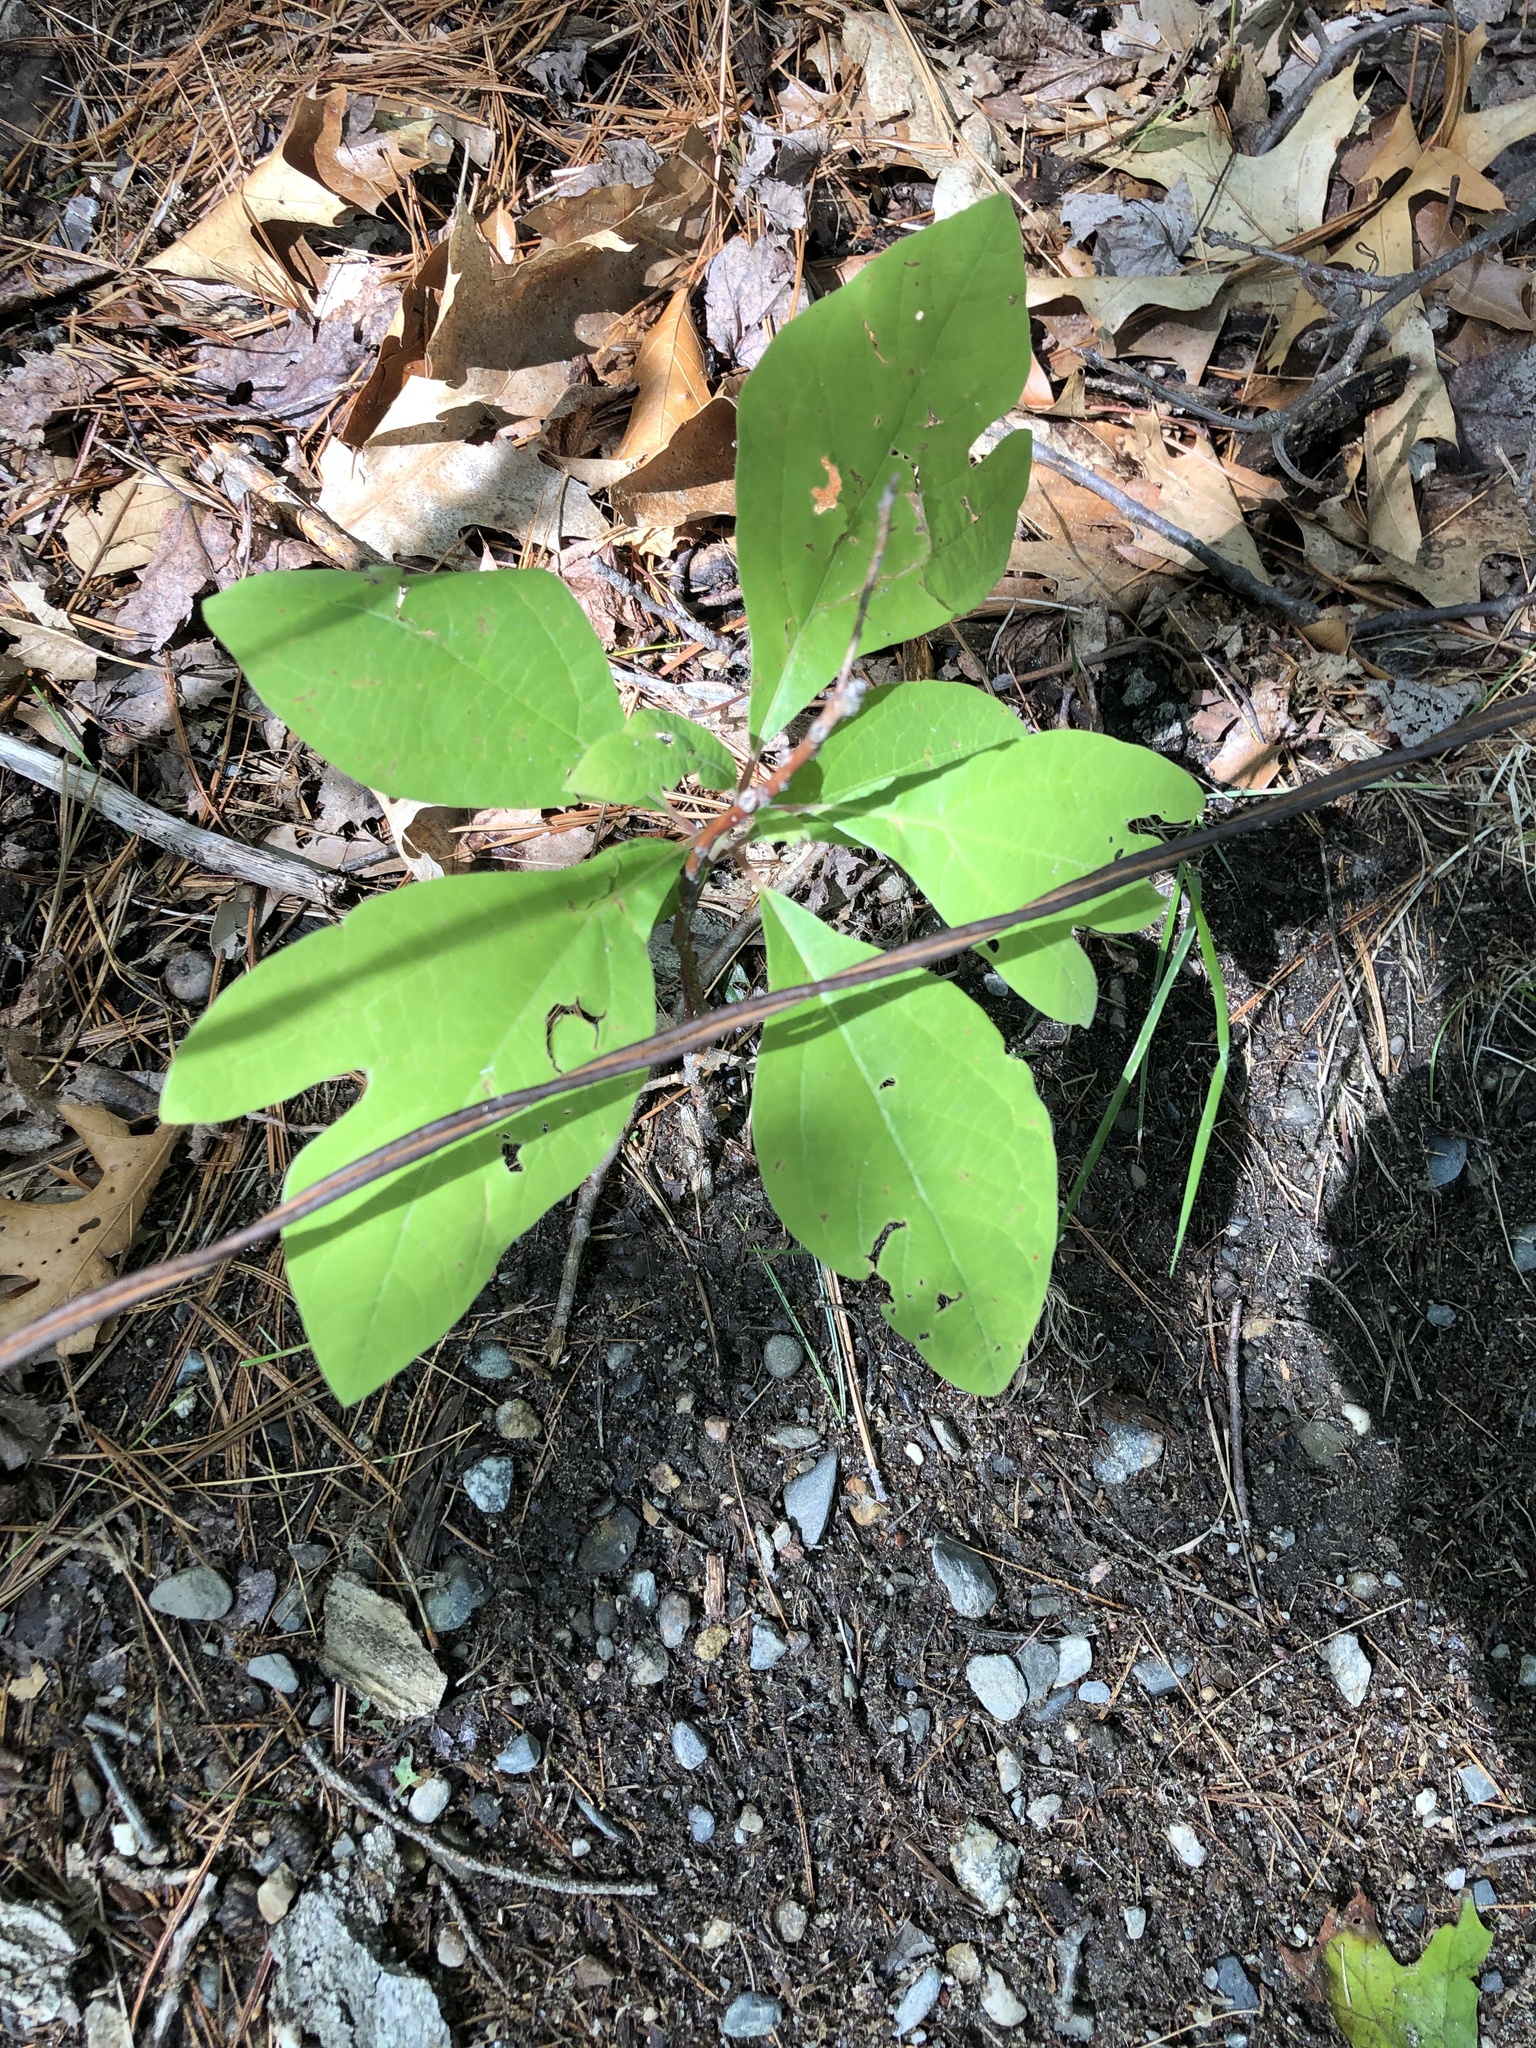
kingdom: Plantae
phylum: Tracheophyta
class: Magnoliopsida
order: Laurales
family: Lauraceae
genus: Sassafras
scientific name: Sassafras albidum
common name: Sassafras
